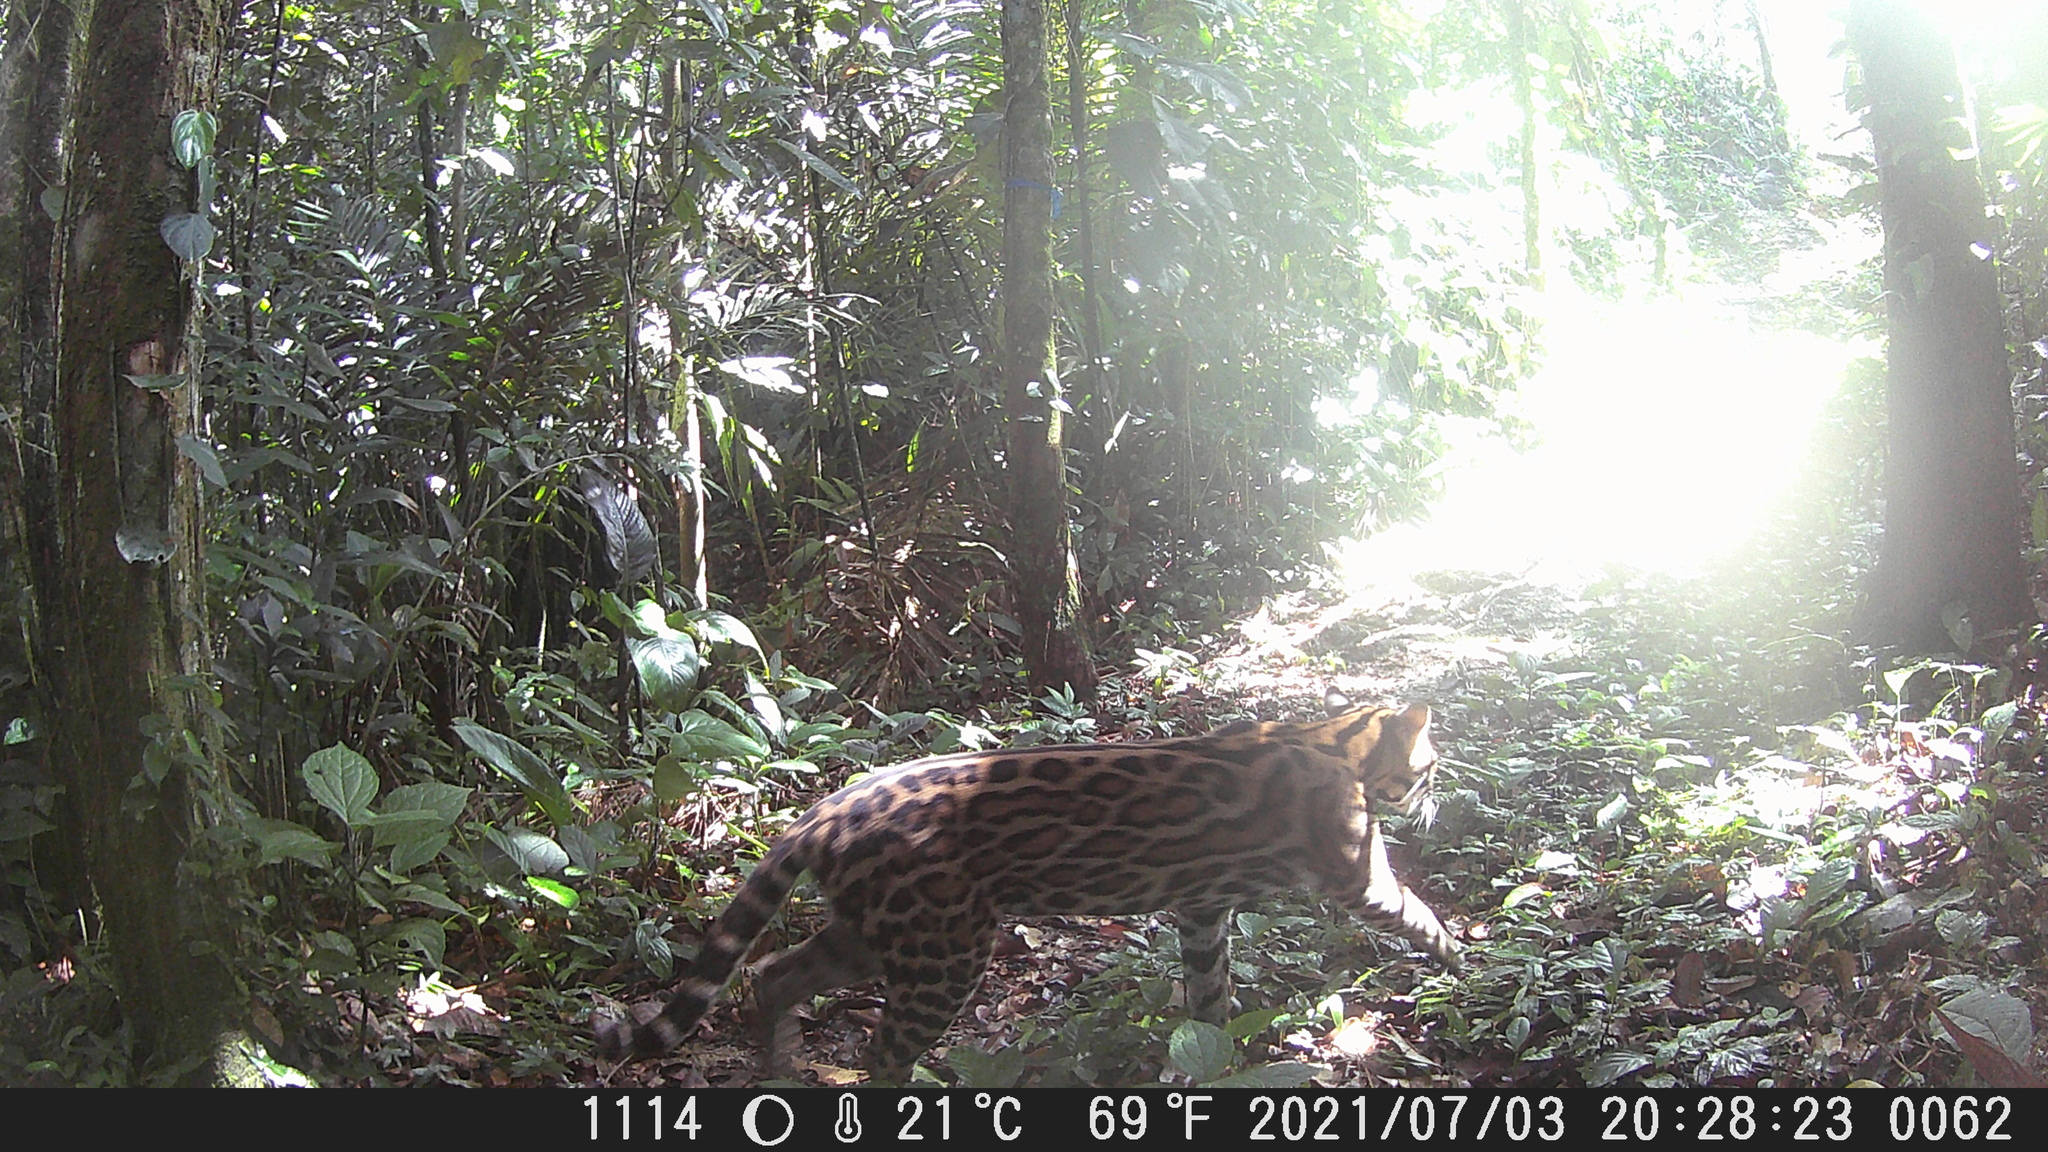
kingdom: Animalia
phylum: Chordata
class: Mammalia
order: Carnivora
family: Felidae
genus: Leopardus
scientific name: Leopardus pardalis
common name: Ocelot
